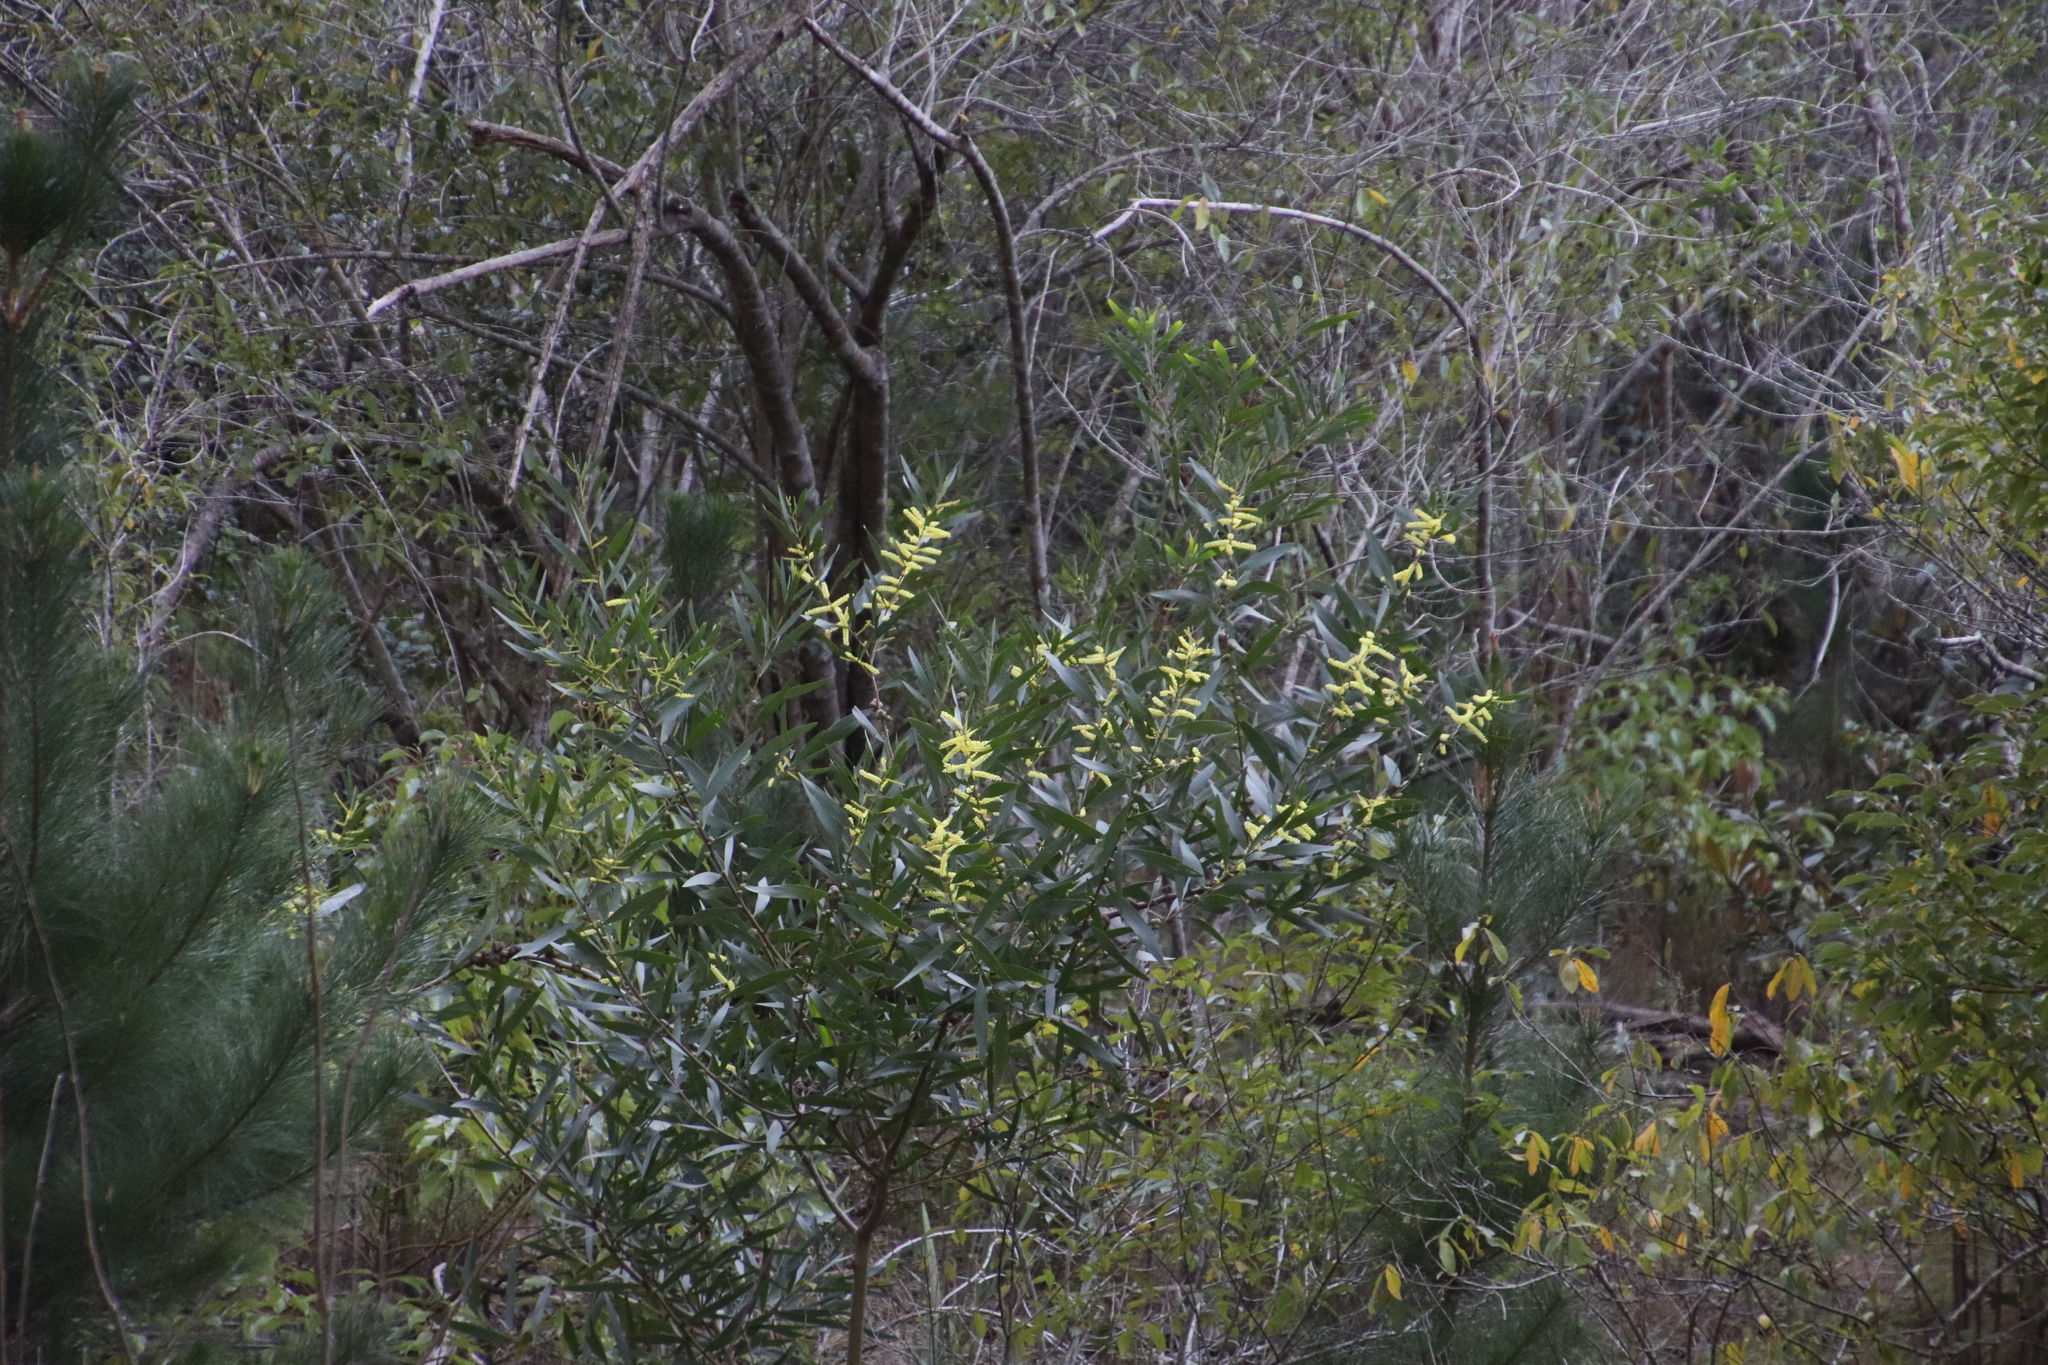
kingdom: Plantae
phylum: Tracheophyta
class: Magnoliopsida
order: Fabales
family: Fabaceae
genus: Acacia
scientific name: Acacia longifolia
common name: Sydney golden wattle
